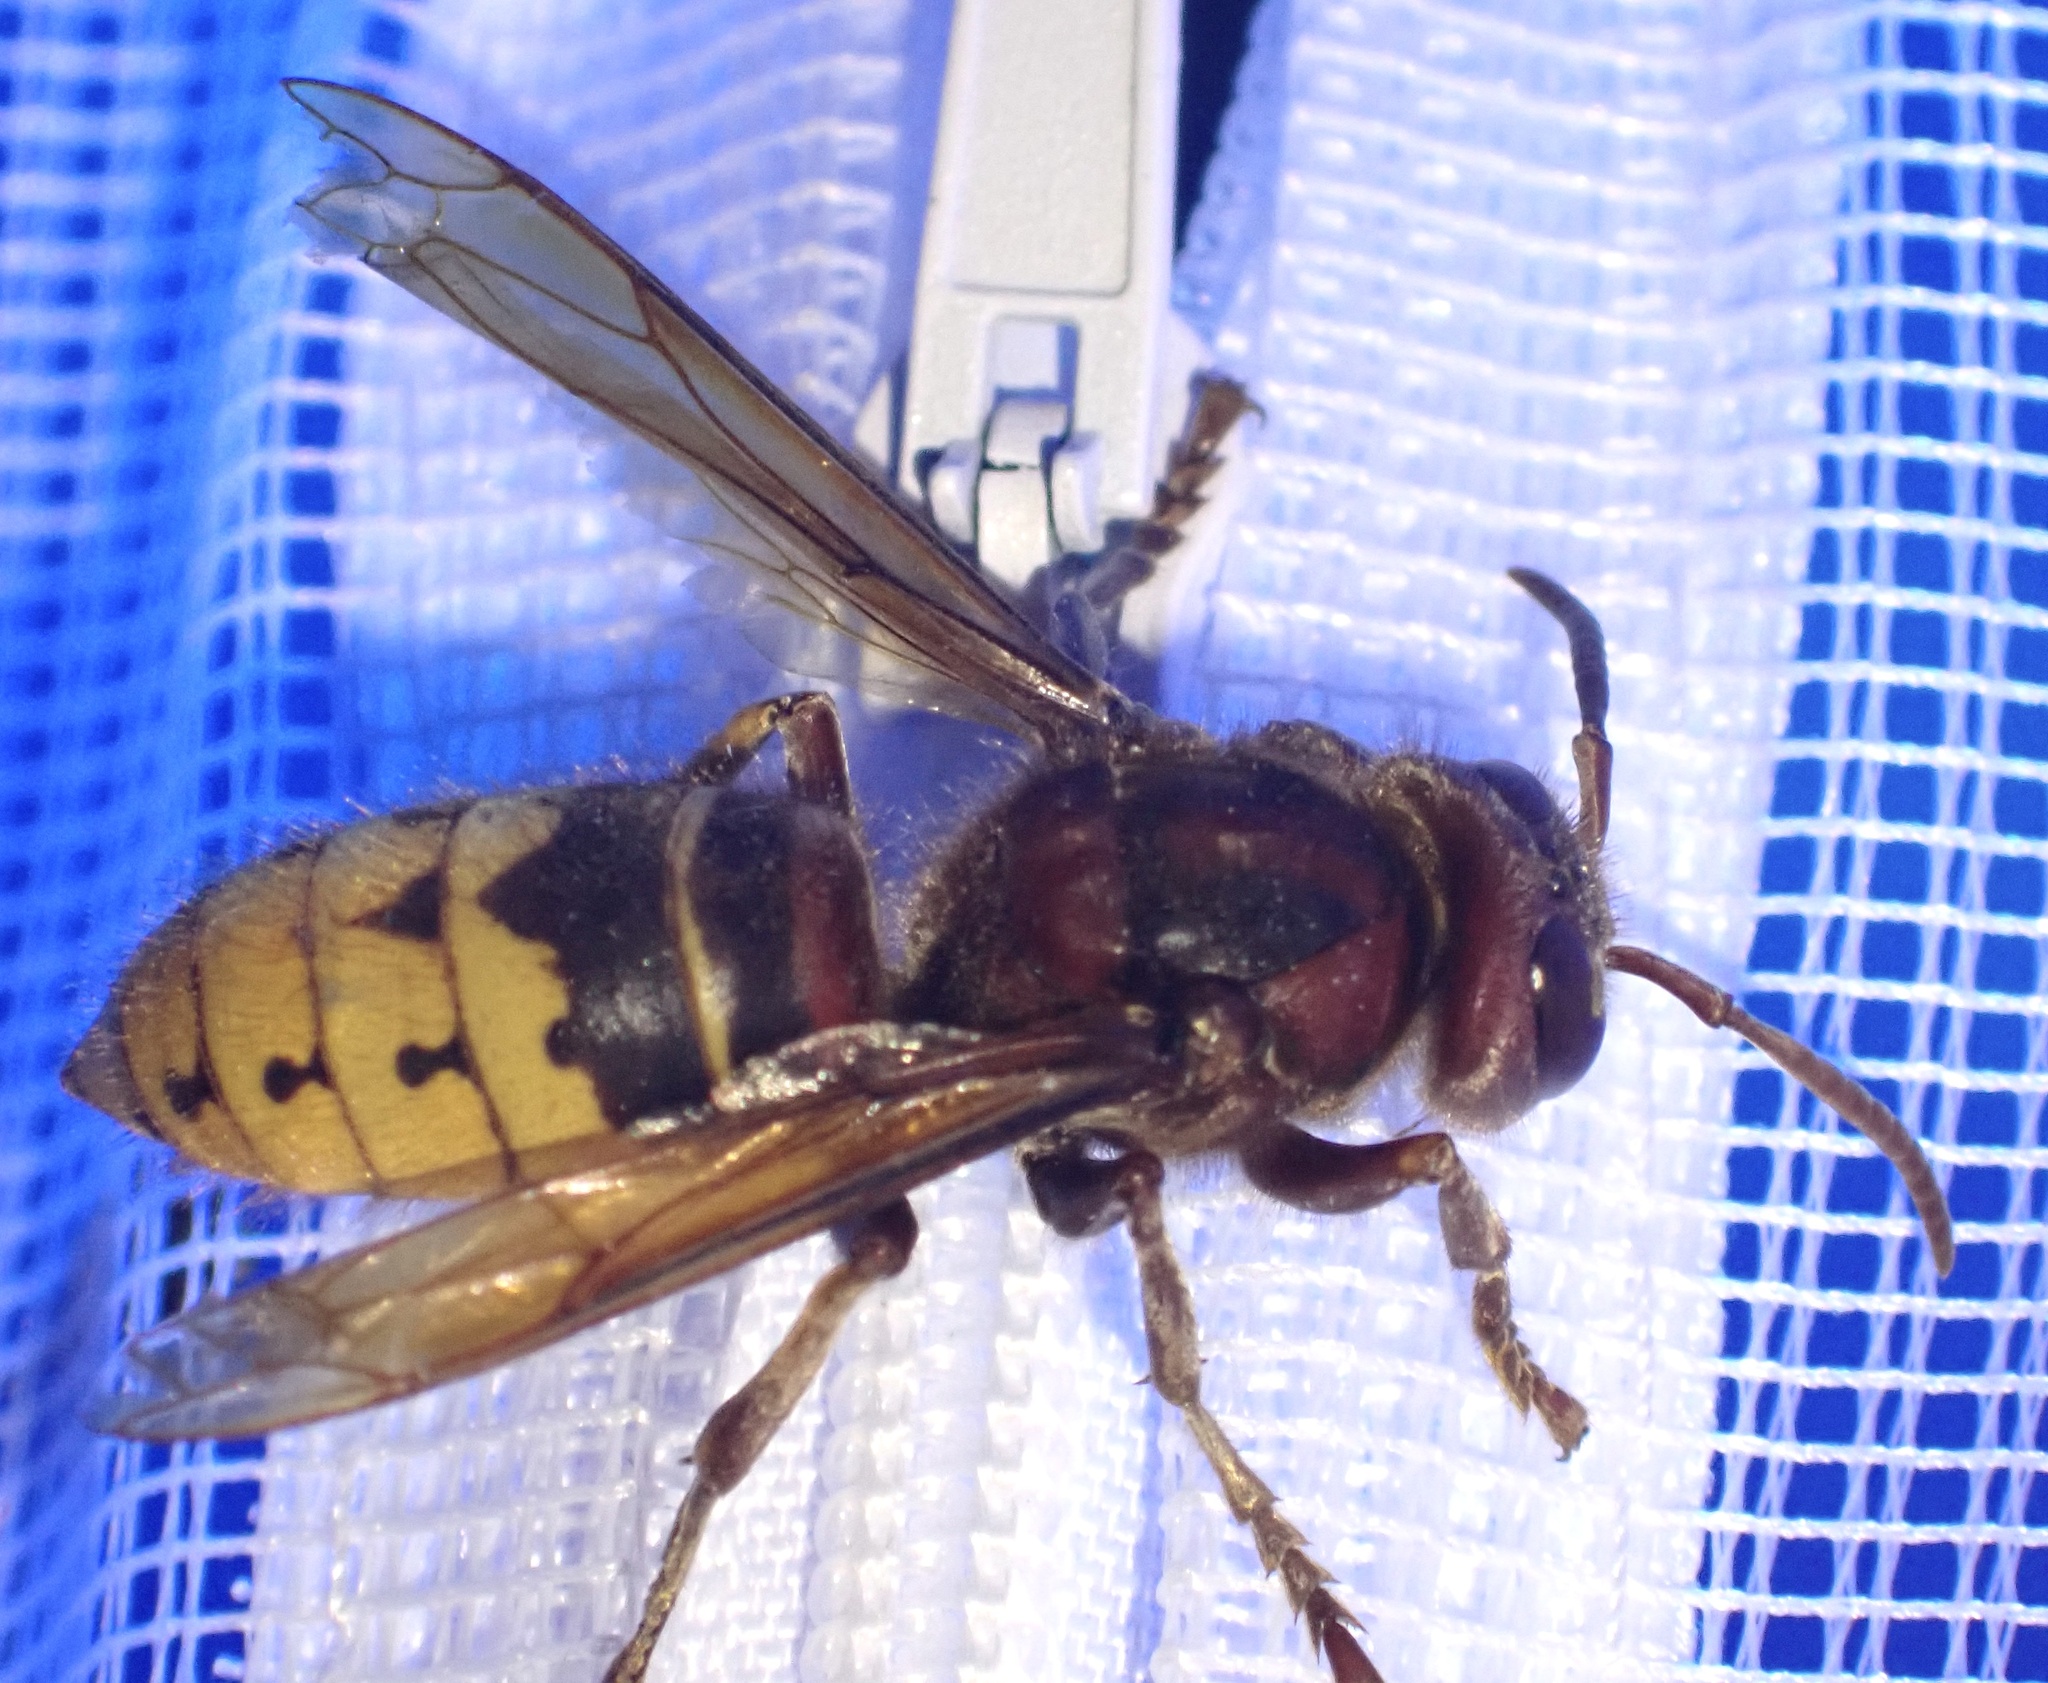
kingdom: Animalia
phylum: Arthropoda
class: Insecta
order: Hymenoptera
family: Vespidae
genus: Vespa
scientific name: Vespa crabro
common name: Hornet
